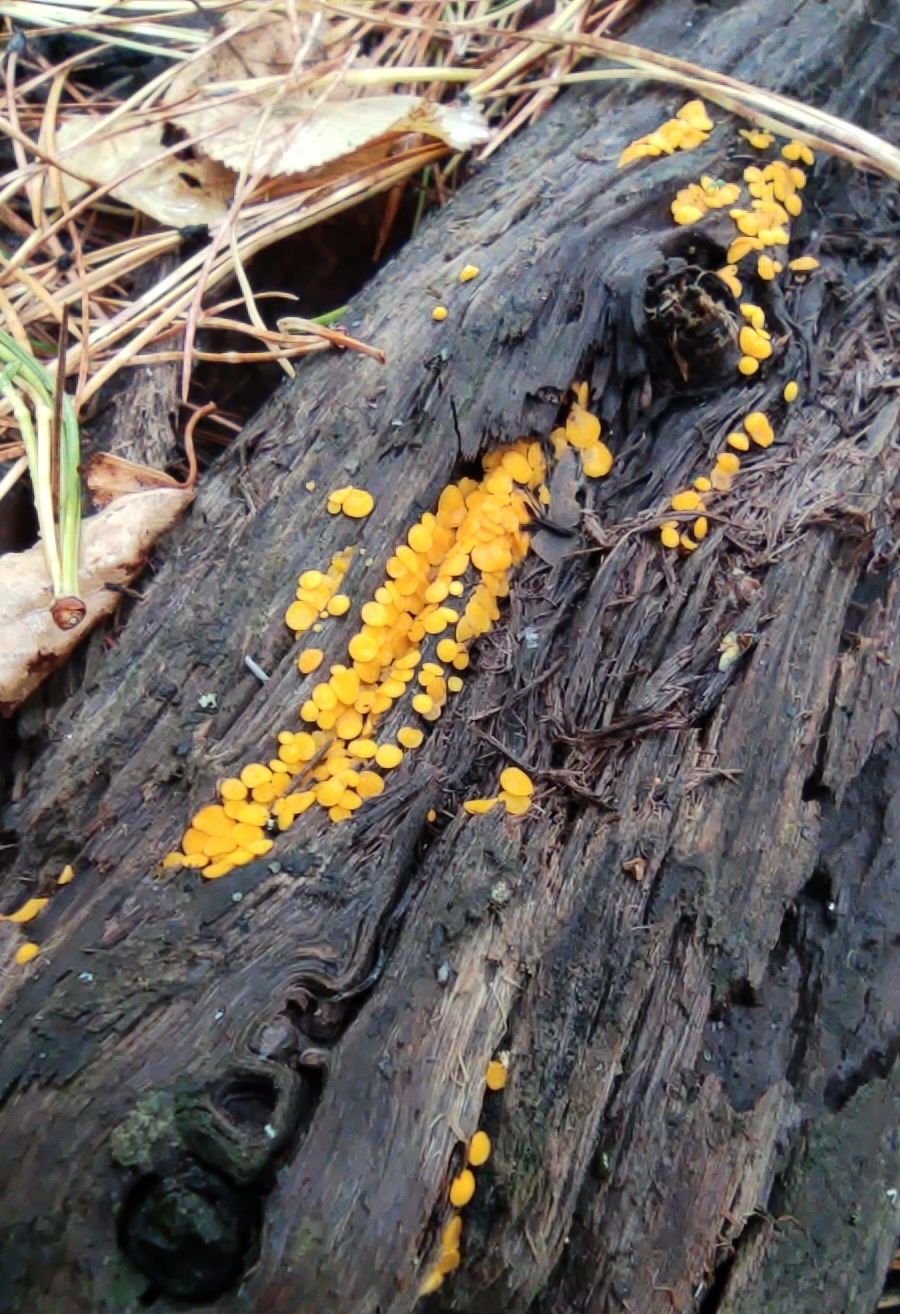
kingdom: Fungi
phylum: Ascomycota
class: Leotiomycetes
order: Helotiales
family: Pezizellaceae
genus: Calycina
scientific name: Calycina citrina
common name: Yellow fairy cups
